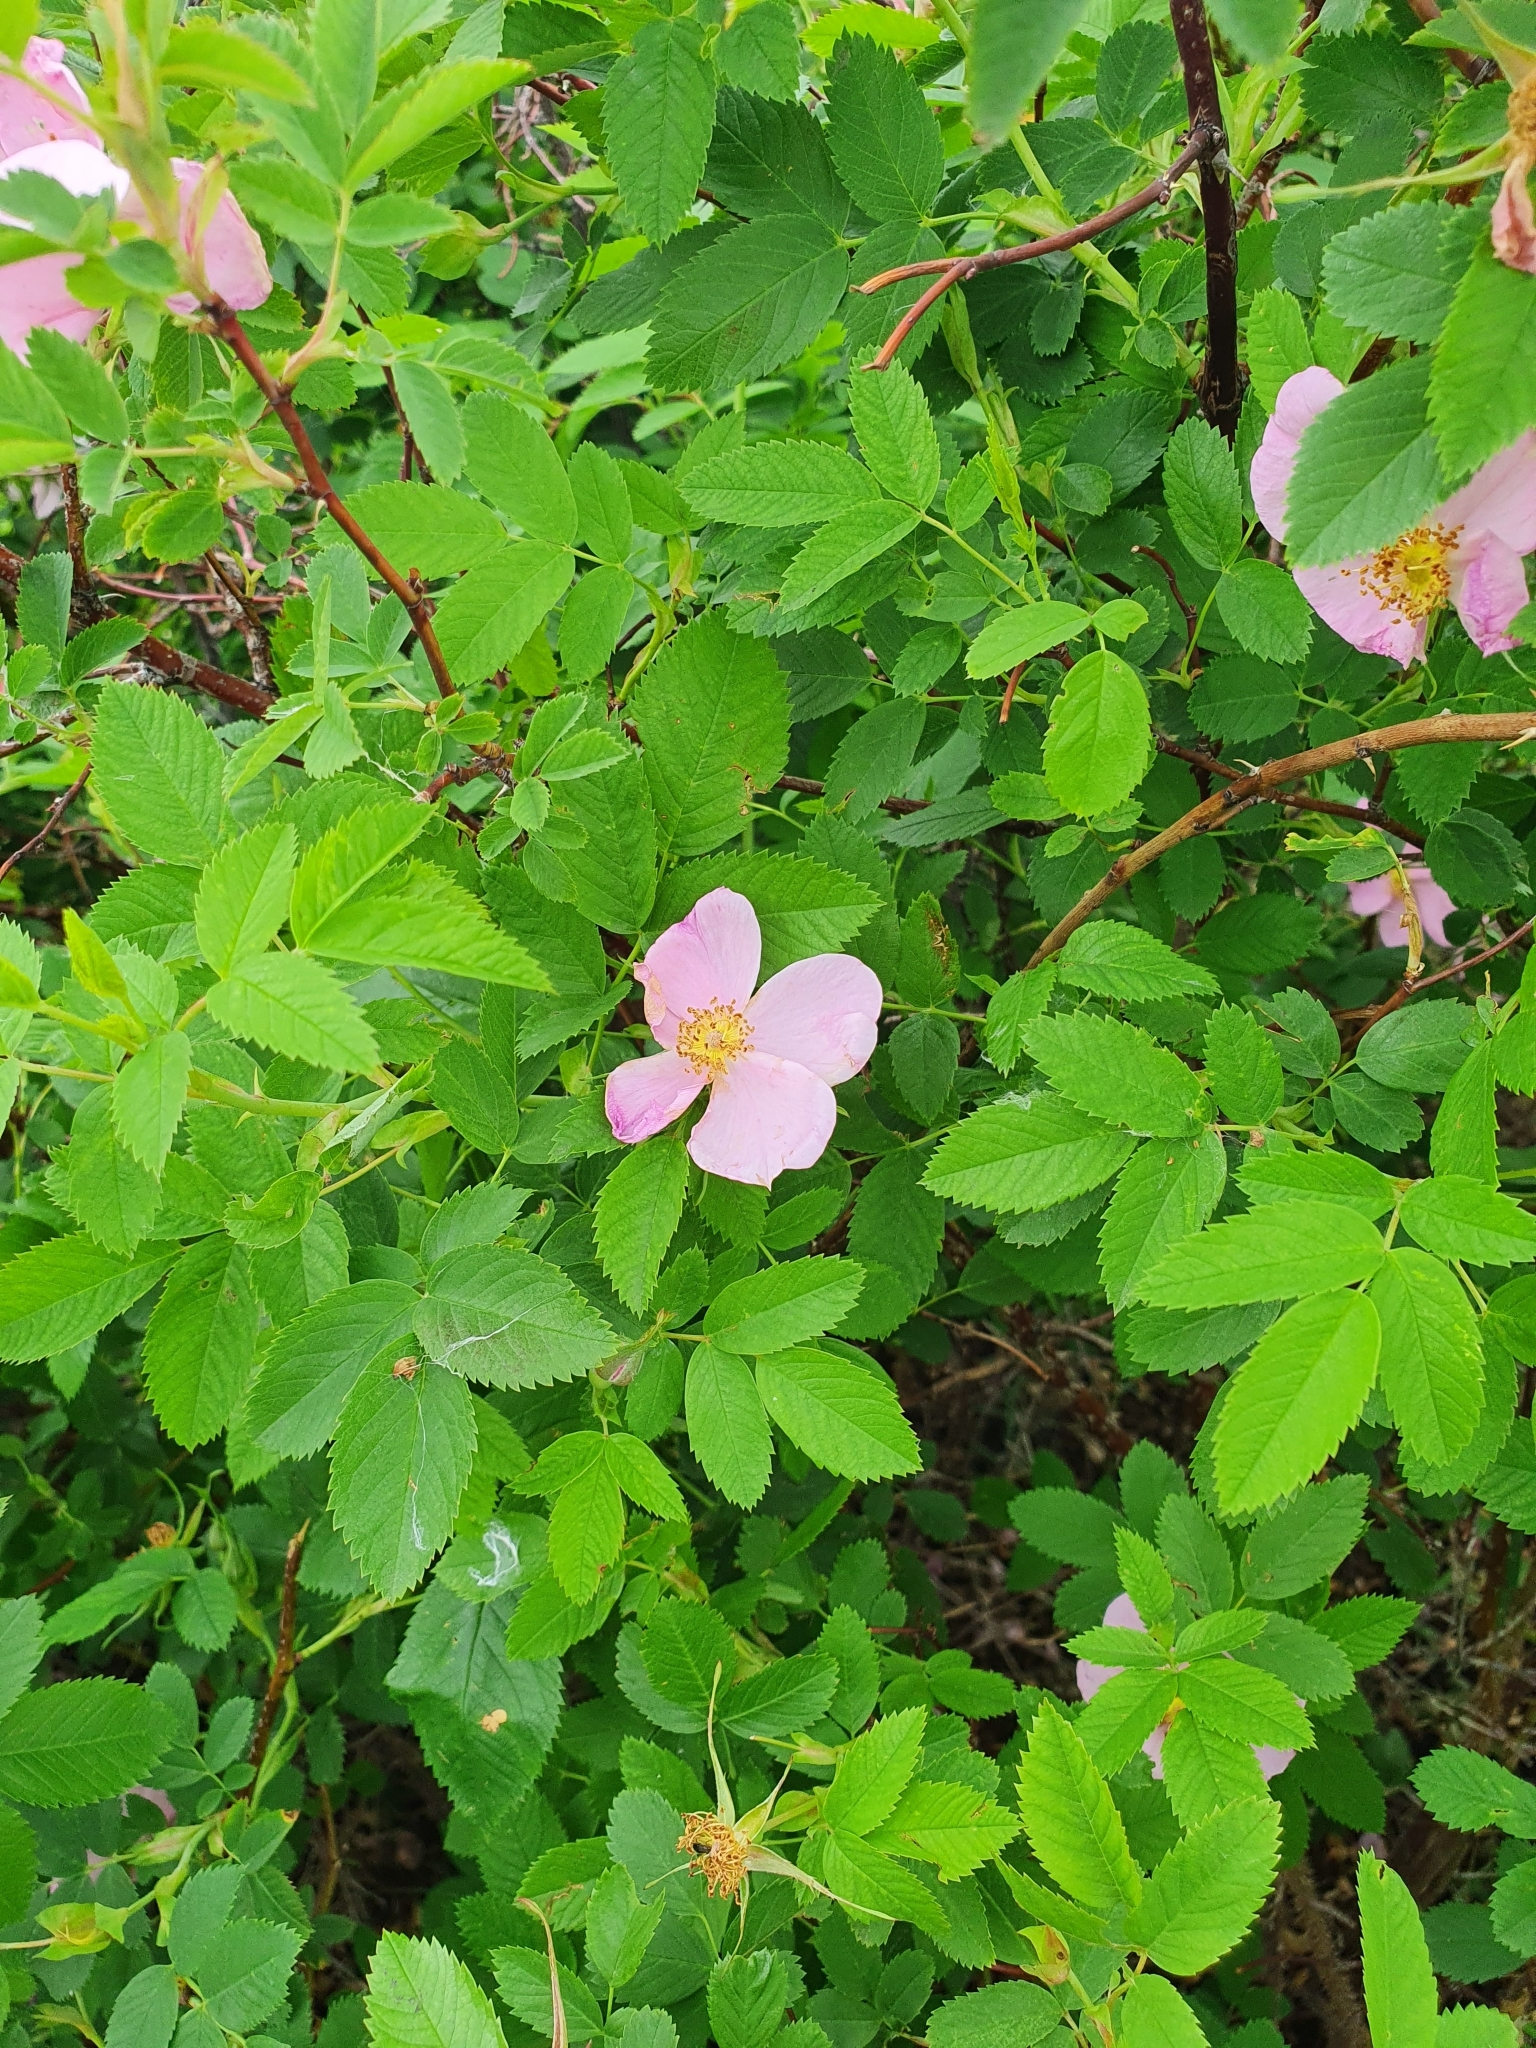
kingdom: Plantae
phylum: Tracheophyta
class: Magnoliopsida
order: Rosales
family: Rosaceae
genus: Rosa
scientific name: Rosa majalis
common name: Cinnamon rose
